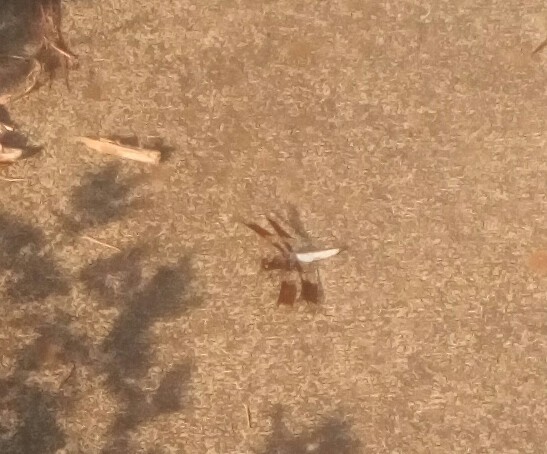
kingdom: Animalia
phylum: Arthropoda
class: Insecta
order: Odonata
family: Libellulidae
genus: Plathemis
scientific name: Plathemis lydia
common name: Common whitetail
